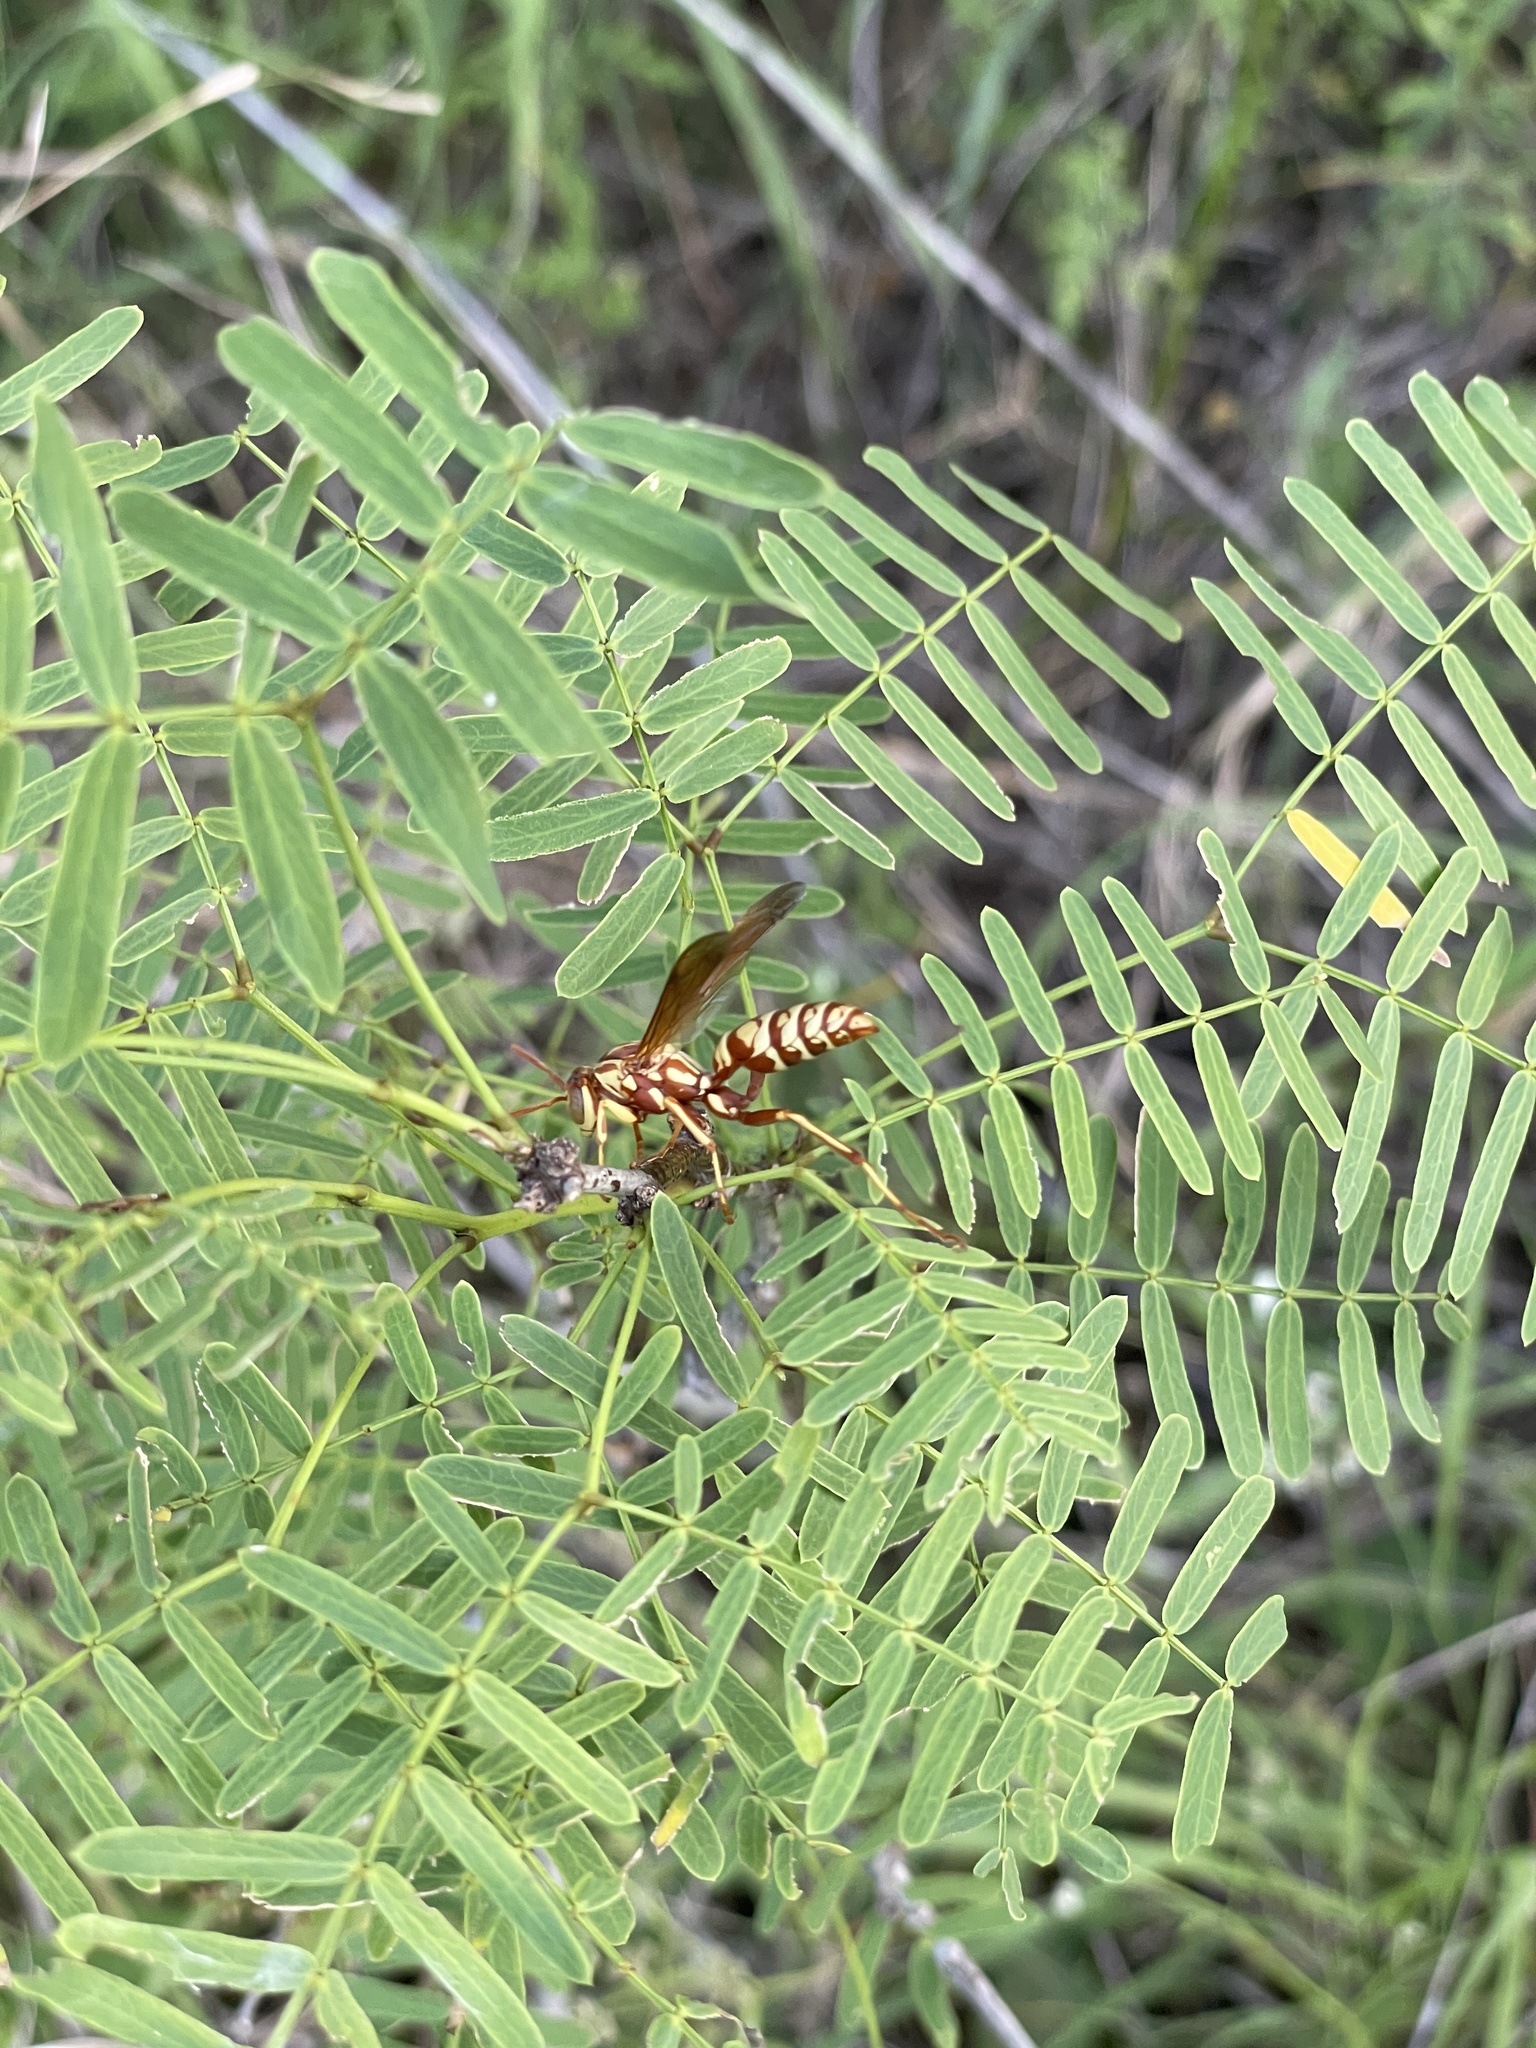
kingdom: Animalia
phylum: Arthropoda
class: Insecta
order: Hymenoptera
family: Eumenidae
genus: Polistes
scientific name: Polistes apachus
